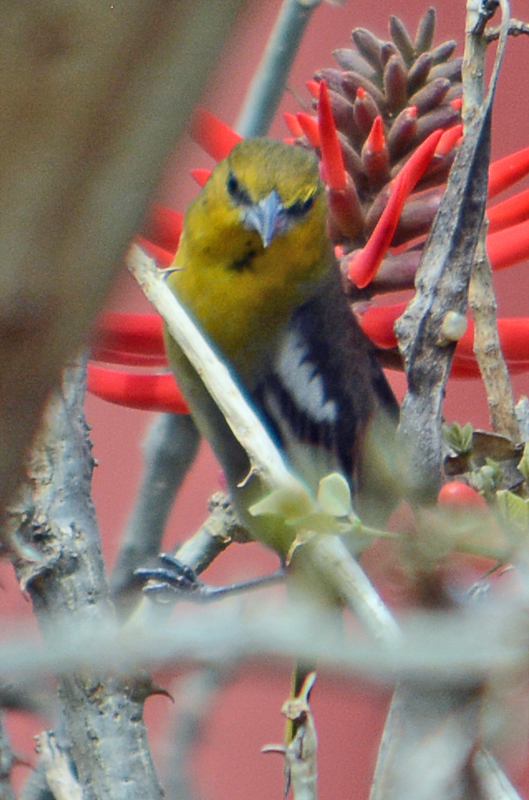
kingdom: Animalia
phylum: Chordata
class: Aves
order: Passeriformes
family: Icteridae
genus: Icterus
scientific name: Icterus bullockii
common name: Bullock's oriole
